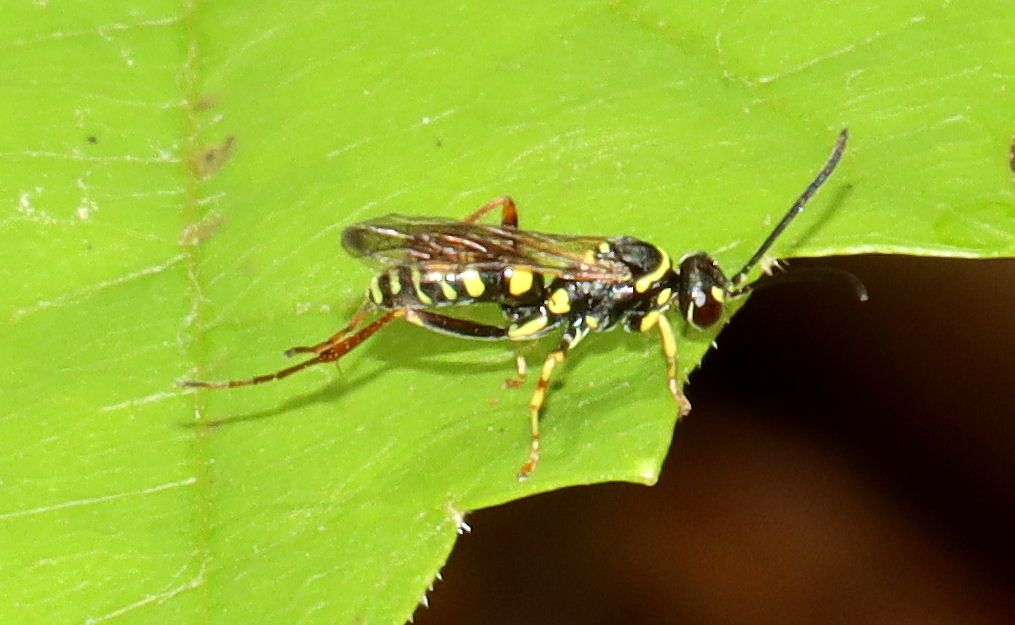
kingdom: Animalia
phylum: Arthropoda
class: Insecta
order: Hymenoptera
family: Pompilidae
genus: Ceropales
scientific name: Ceropales maculata
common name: Spider wasp
